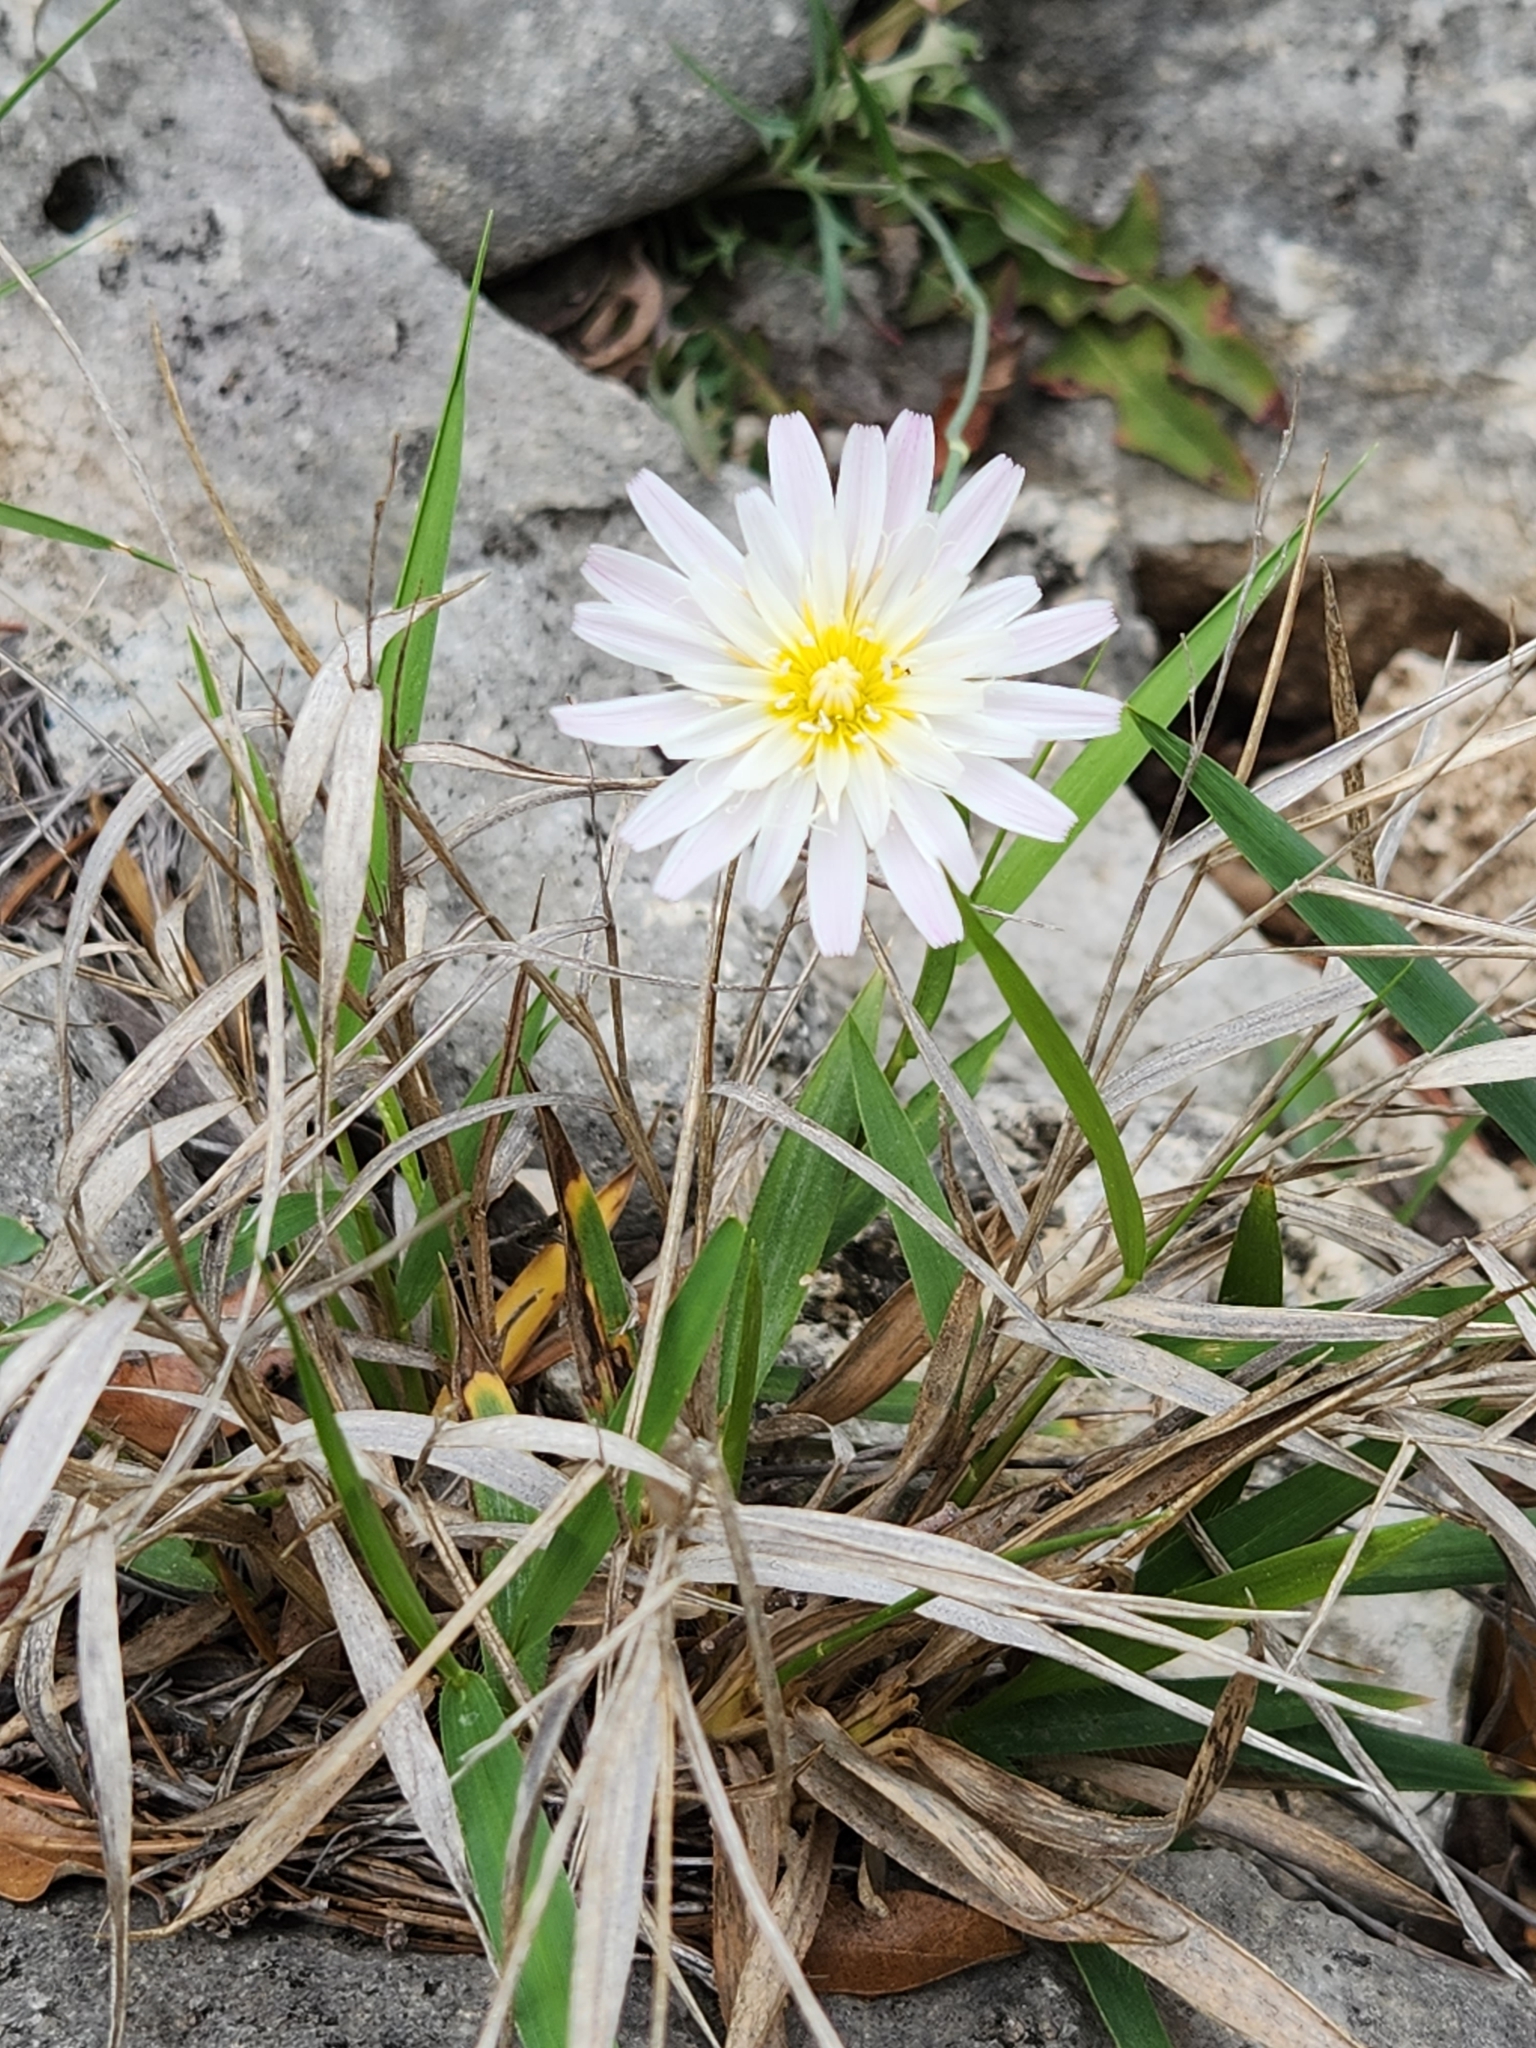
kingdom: Plantae
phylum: Tracheophyta
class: Magnoliopsida
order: Asterales
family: Asteraceae
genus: Pinaropappus
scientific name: Pinaropappus roseus
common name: Rock-lettuce
